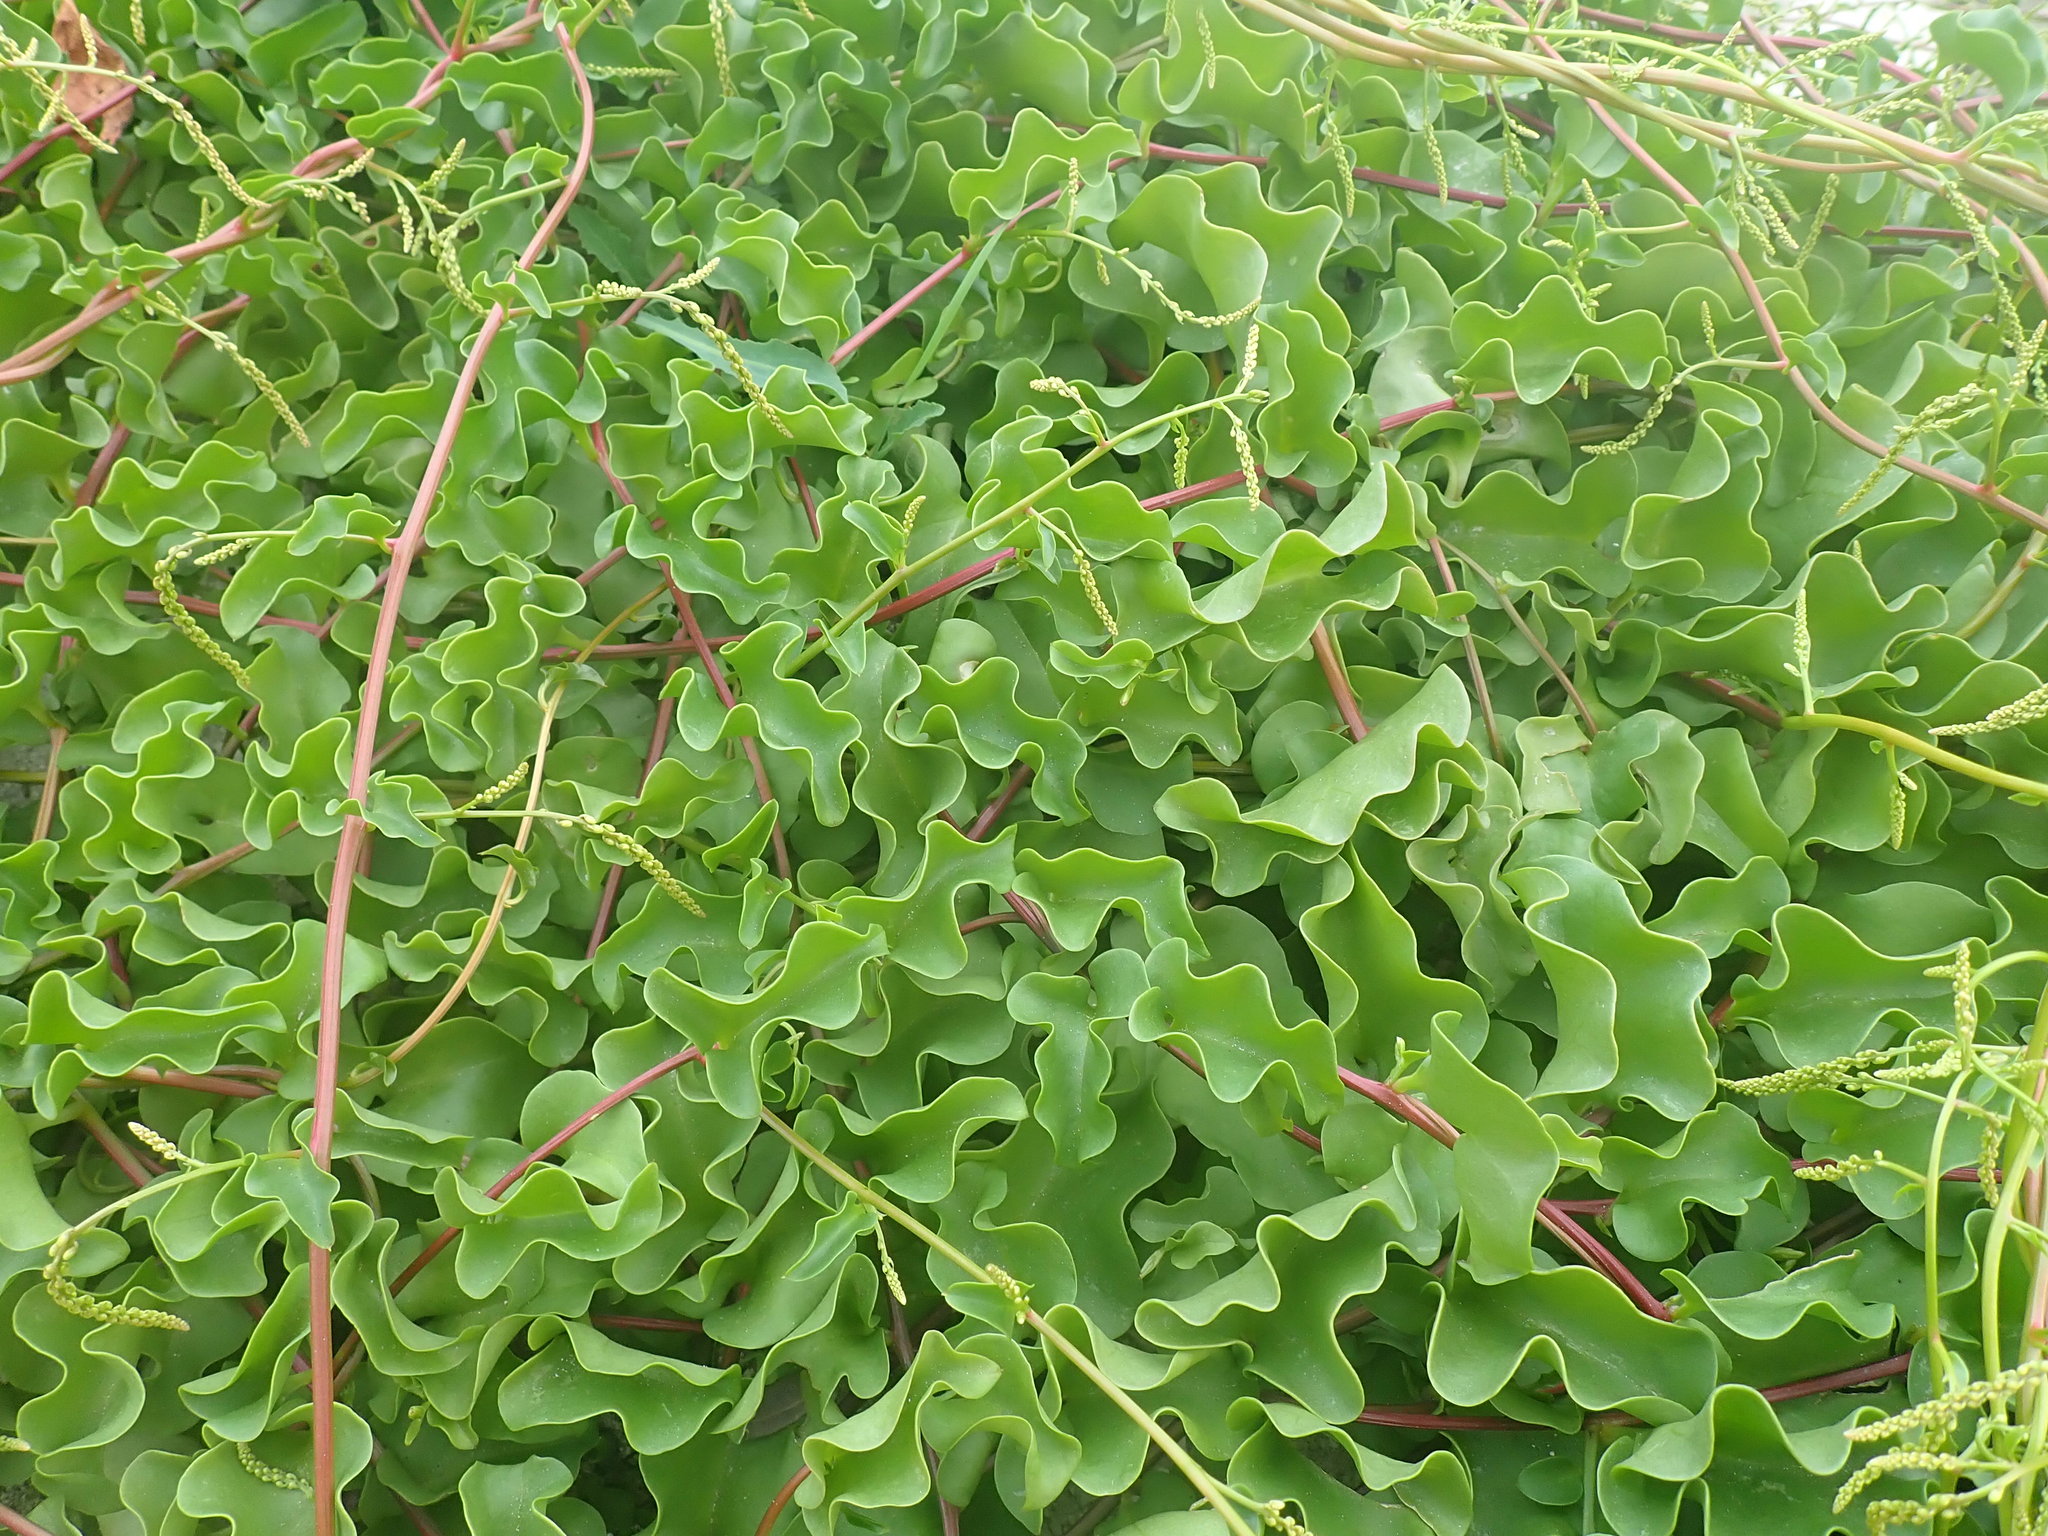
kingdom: Plantae
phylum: Tracheophyta
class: Magnoliopsida
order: Caryophyllales
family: Basellaceae
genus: Anredera
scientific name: Anredera cordifolia
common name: Heartleaf madeiravine
